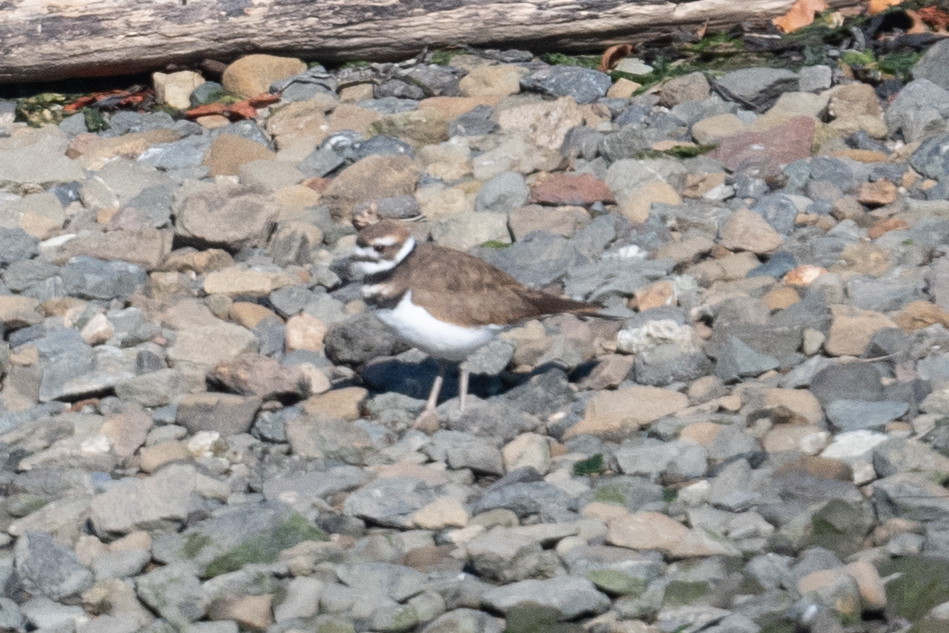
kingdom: Animalia
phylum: Chordata
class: Aves
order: Charadriiformes
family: Charadriidae
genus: Charadrius
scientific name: Charadrius vociferus
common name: Killdeer
